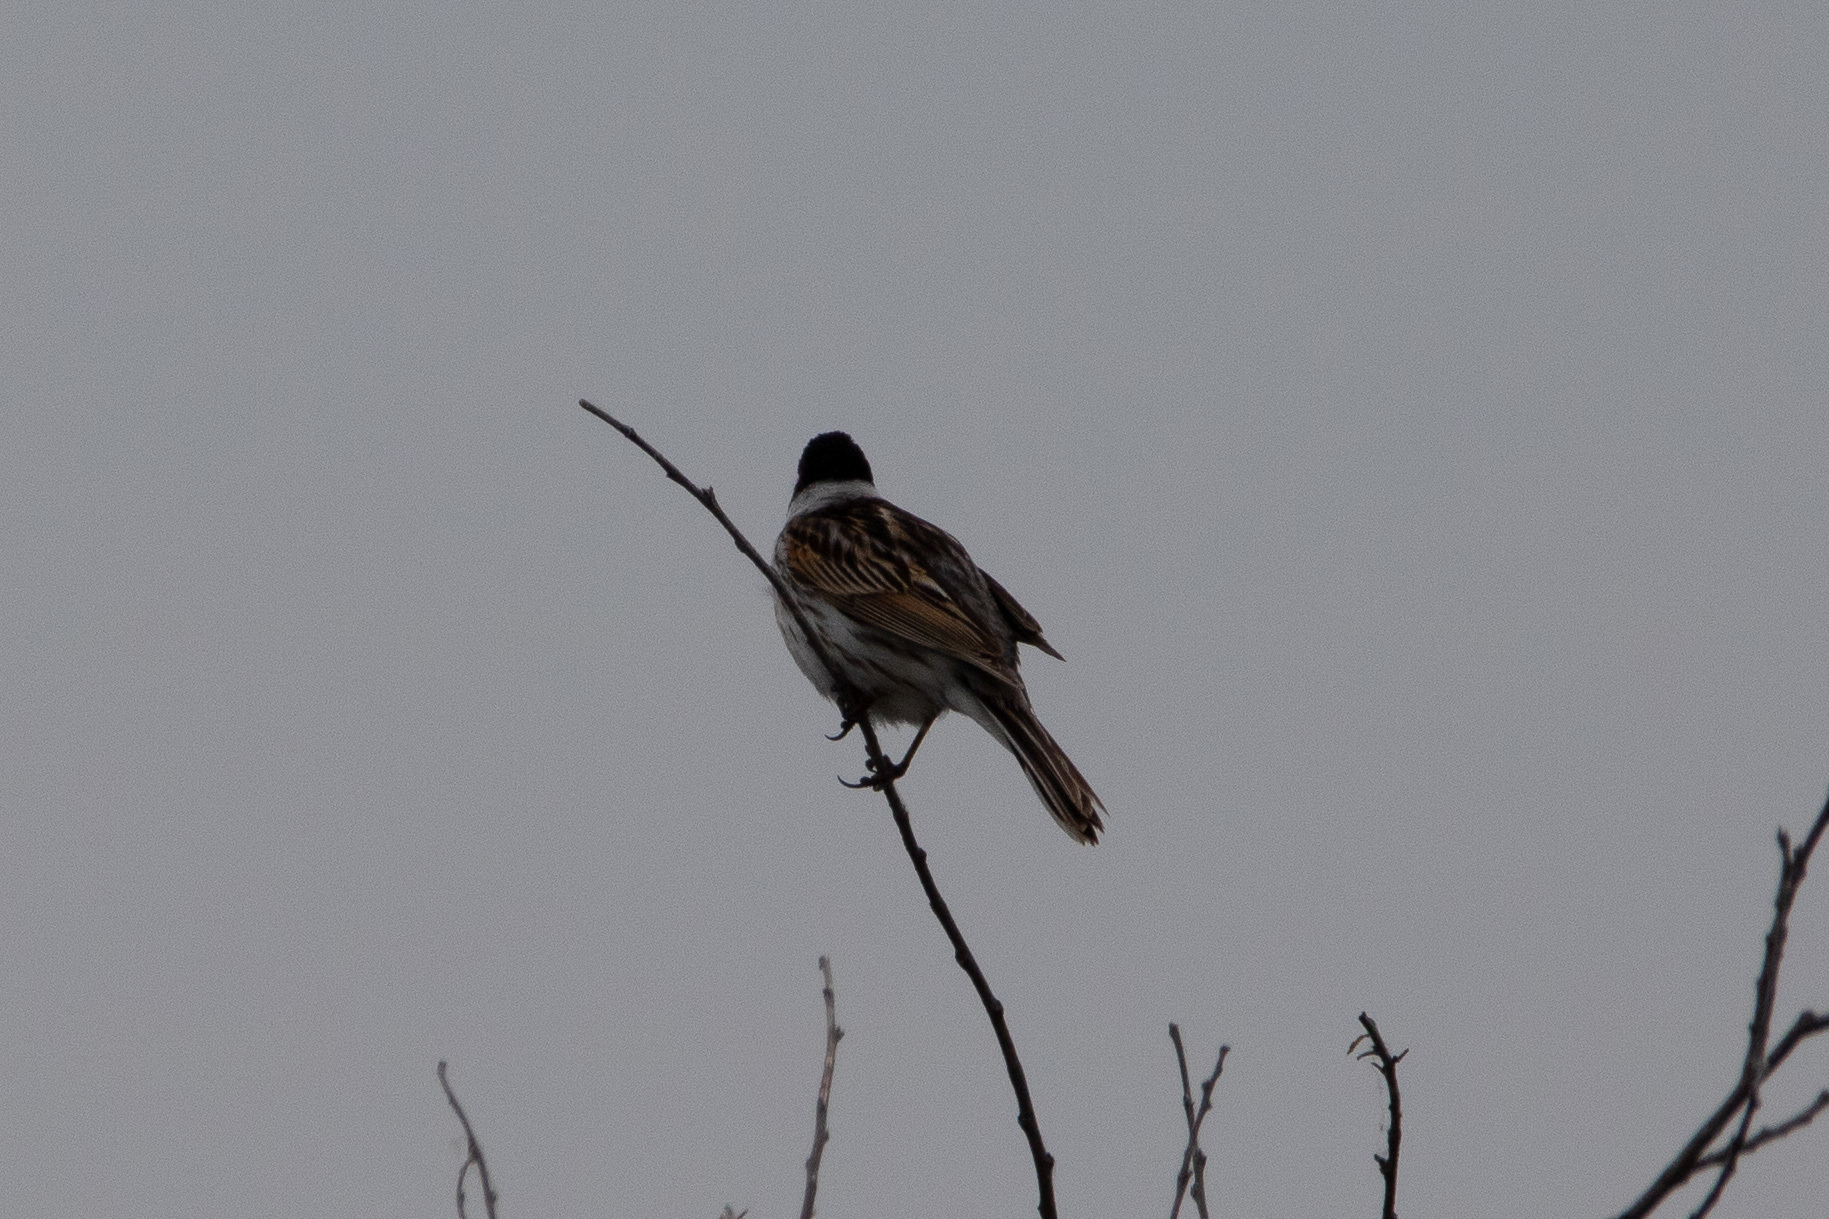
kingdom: Animalia
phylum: Chordata
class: Aves
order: Passeriformes
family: Emberizidae
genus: Emberiza
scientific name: Emberiza schoeniclus
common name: Reed bunting
